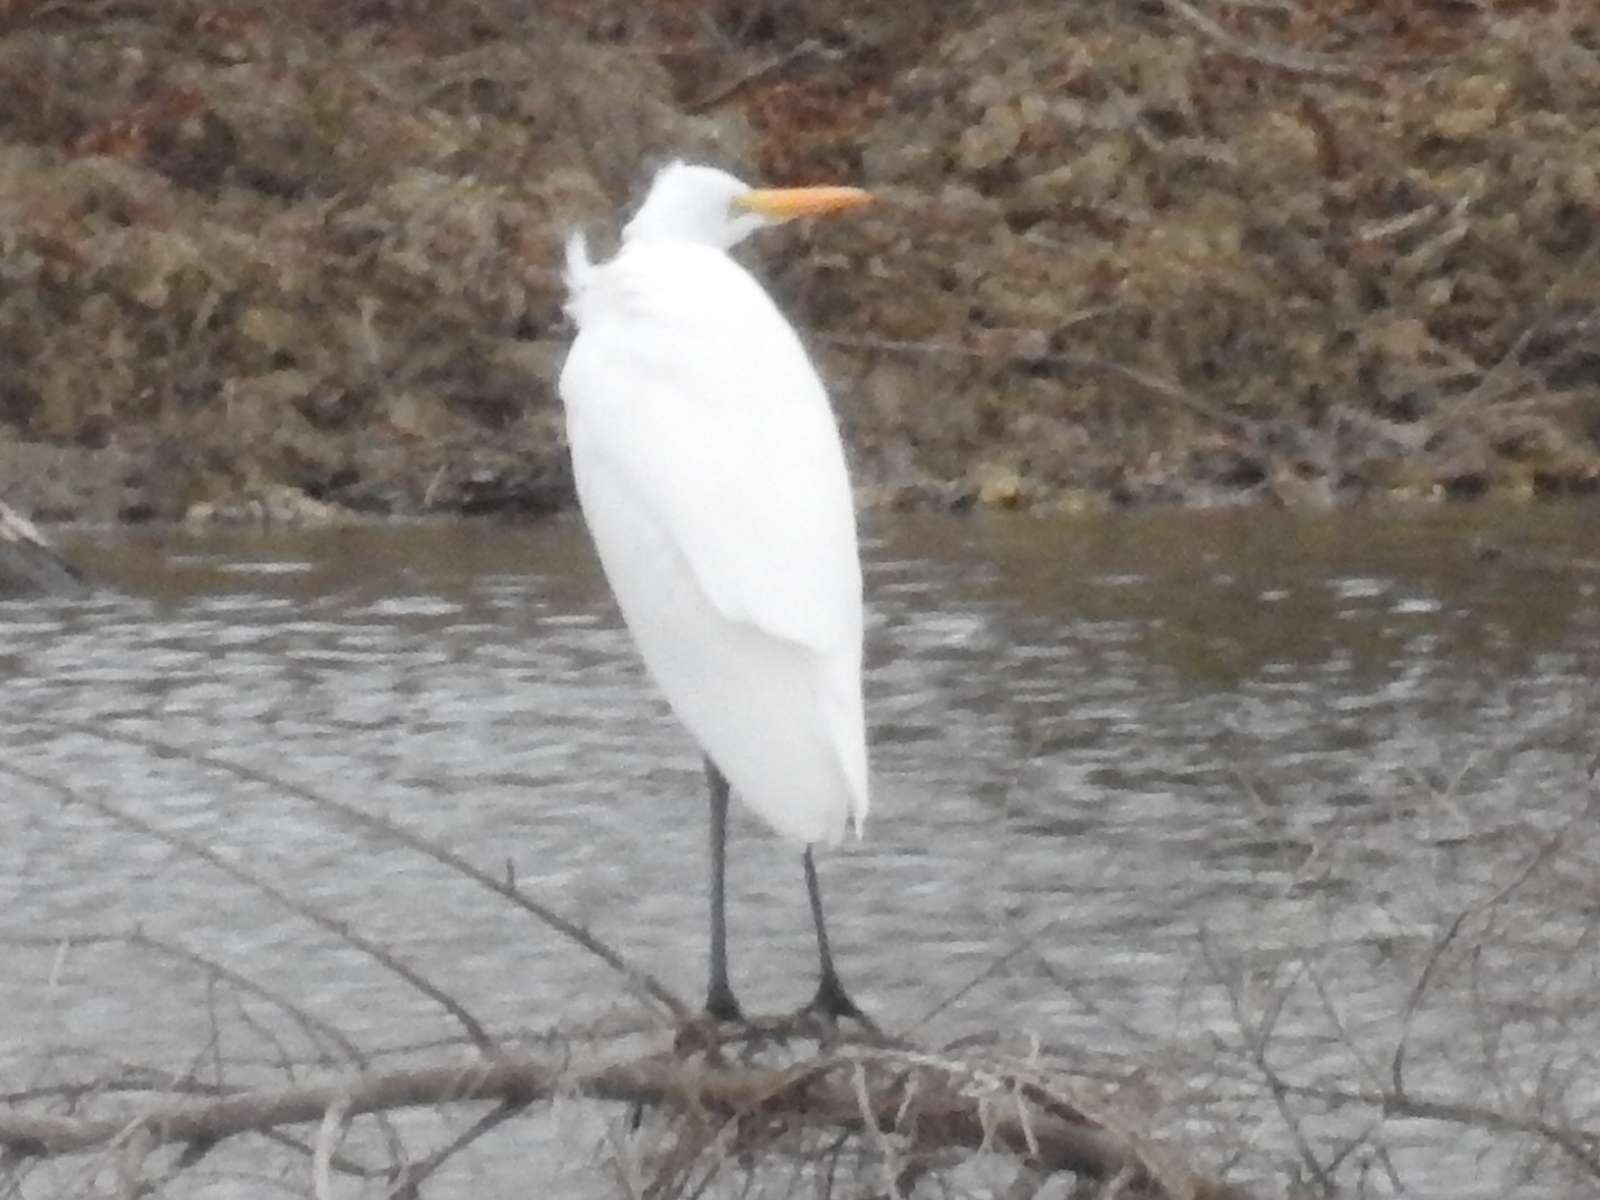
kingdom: Animalia
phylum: Chordata
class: Aves
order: Pelecaniformes
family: Ardeidae
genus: Ardea
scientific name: Ardea alba
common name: Great egret
